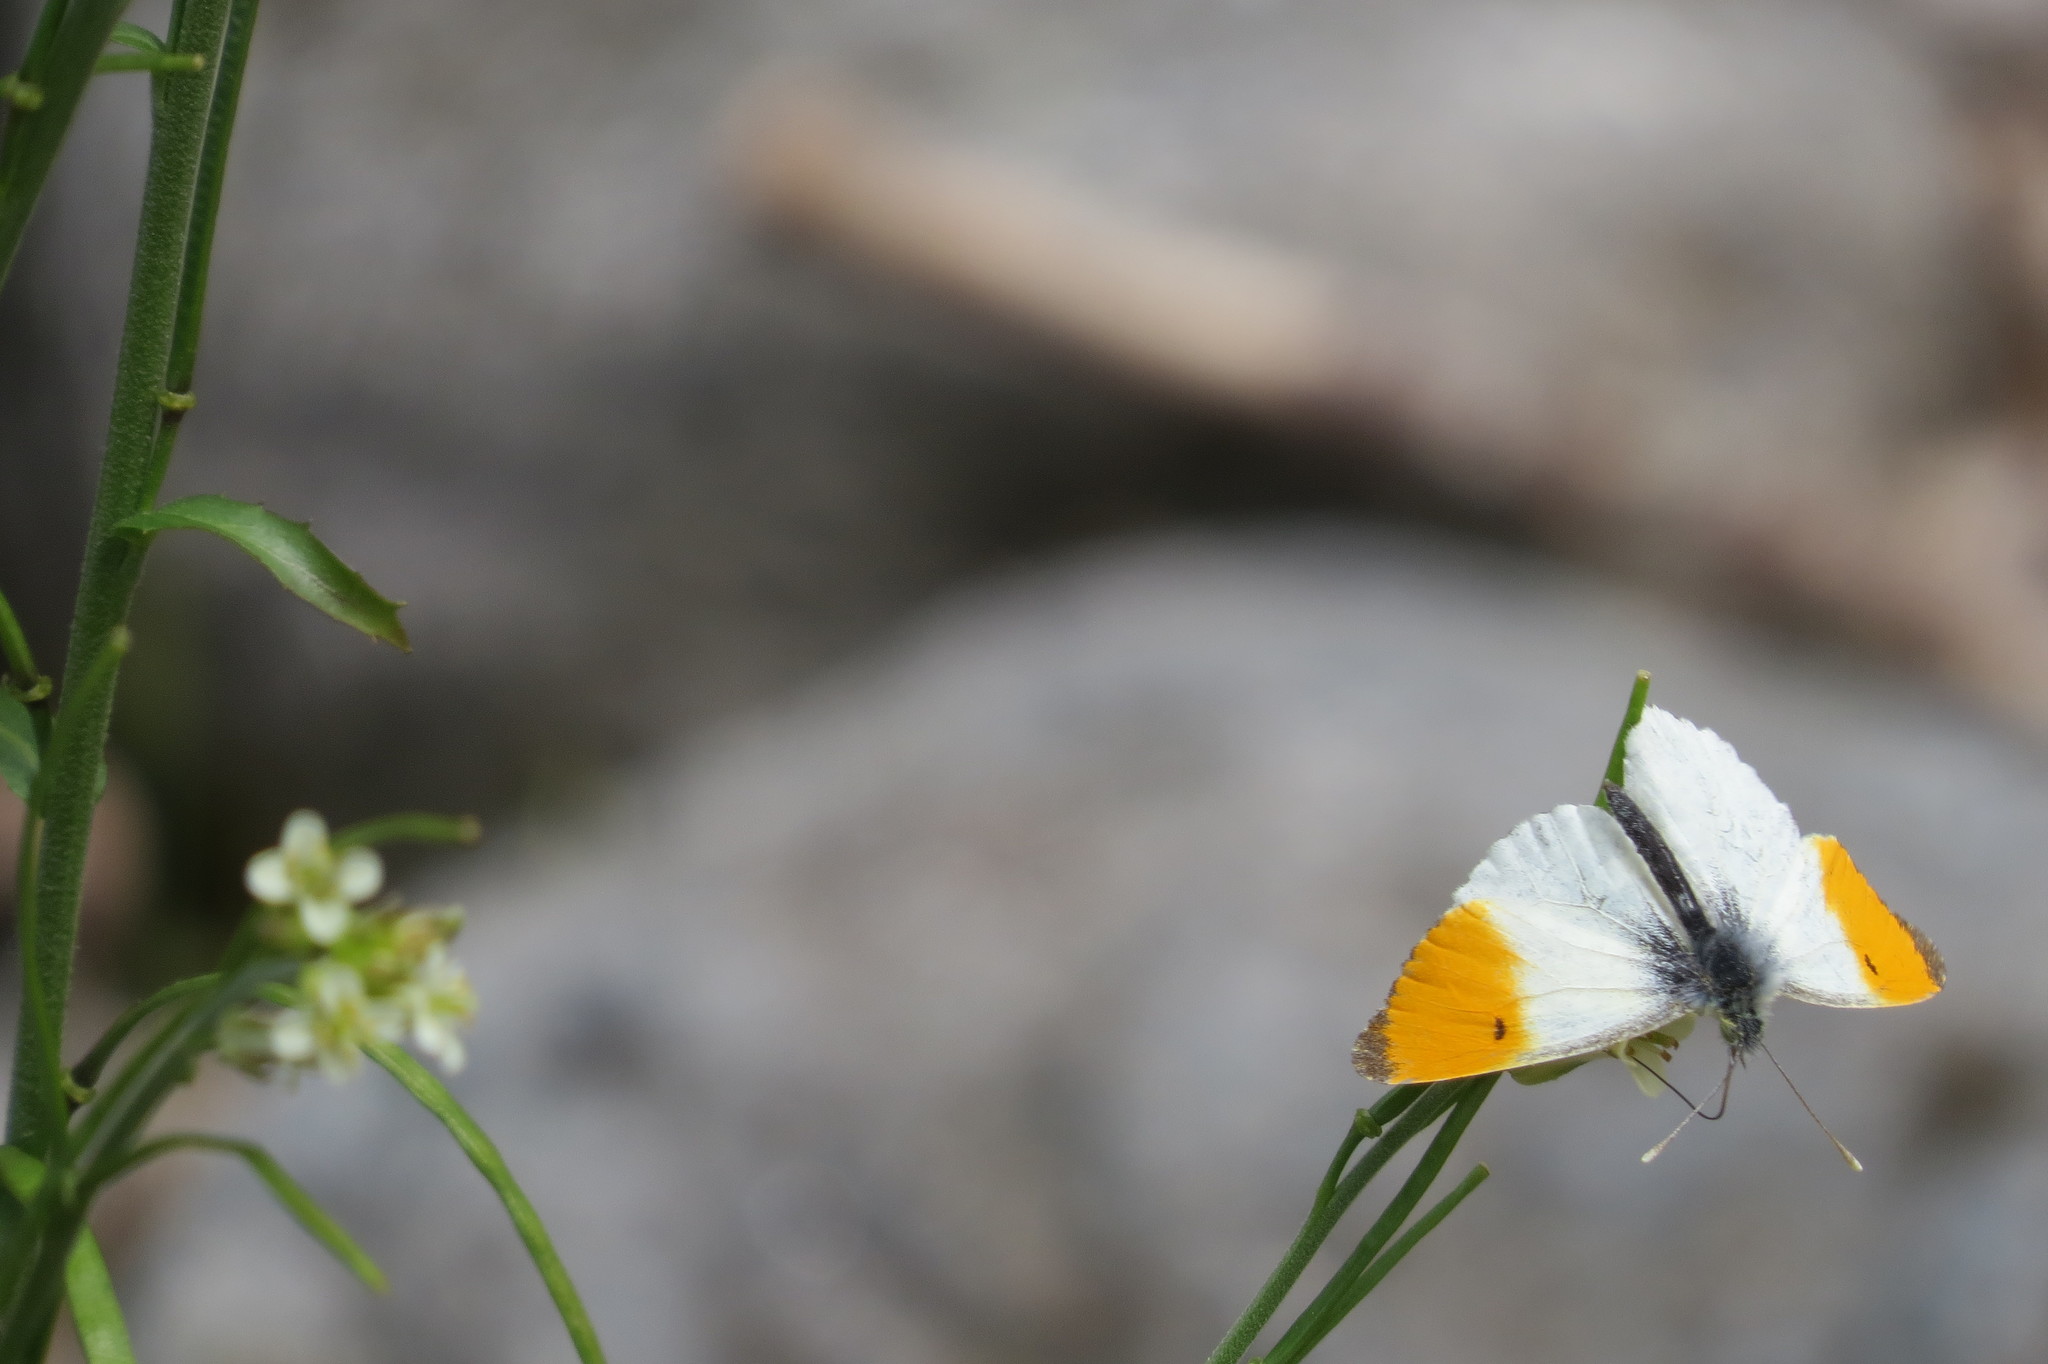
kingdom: Animalia
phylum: Arthropoda
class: Insecta
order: Lepidoptera
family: Pieridae
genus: Anthocharis
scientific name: Anthocharis cardamines
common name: Orange-tip
